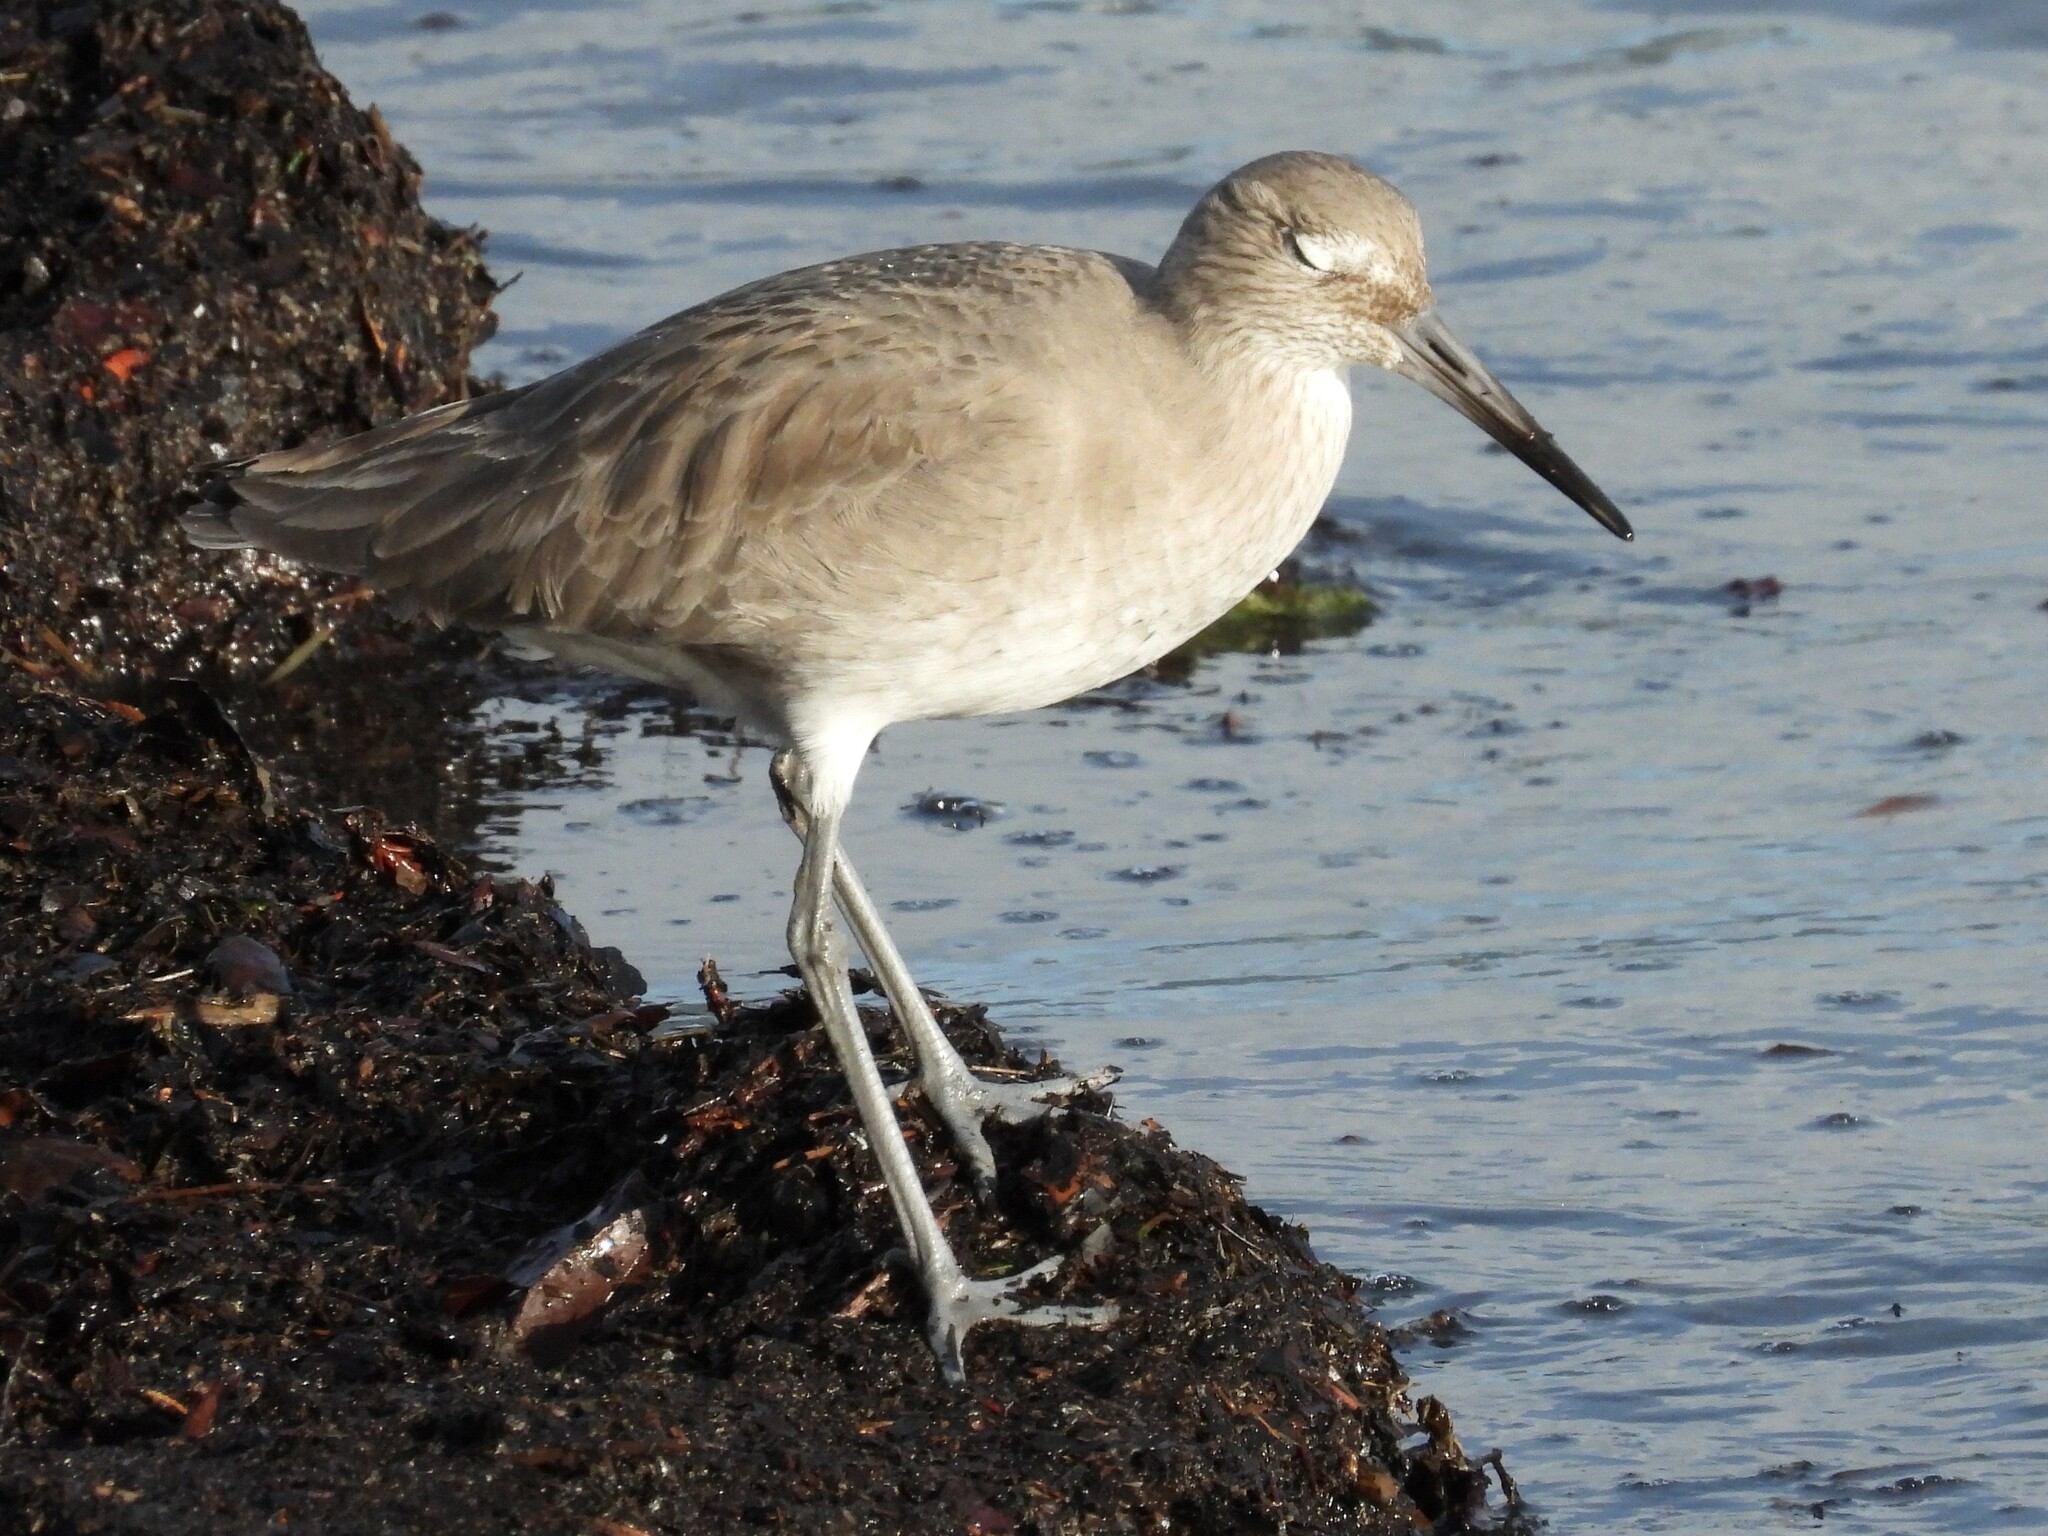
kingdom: Animalia
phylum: Chordata
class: Aves
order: Charadriiformes
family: Scolopacidae
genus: Tringa
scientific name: Tringa semipalmata
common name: Willet
